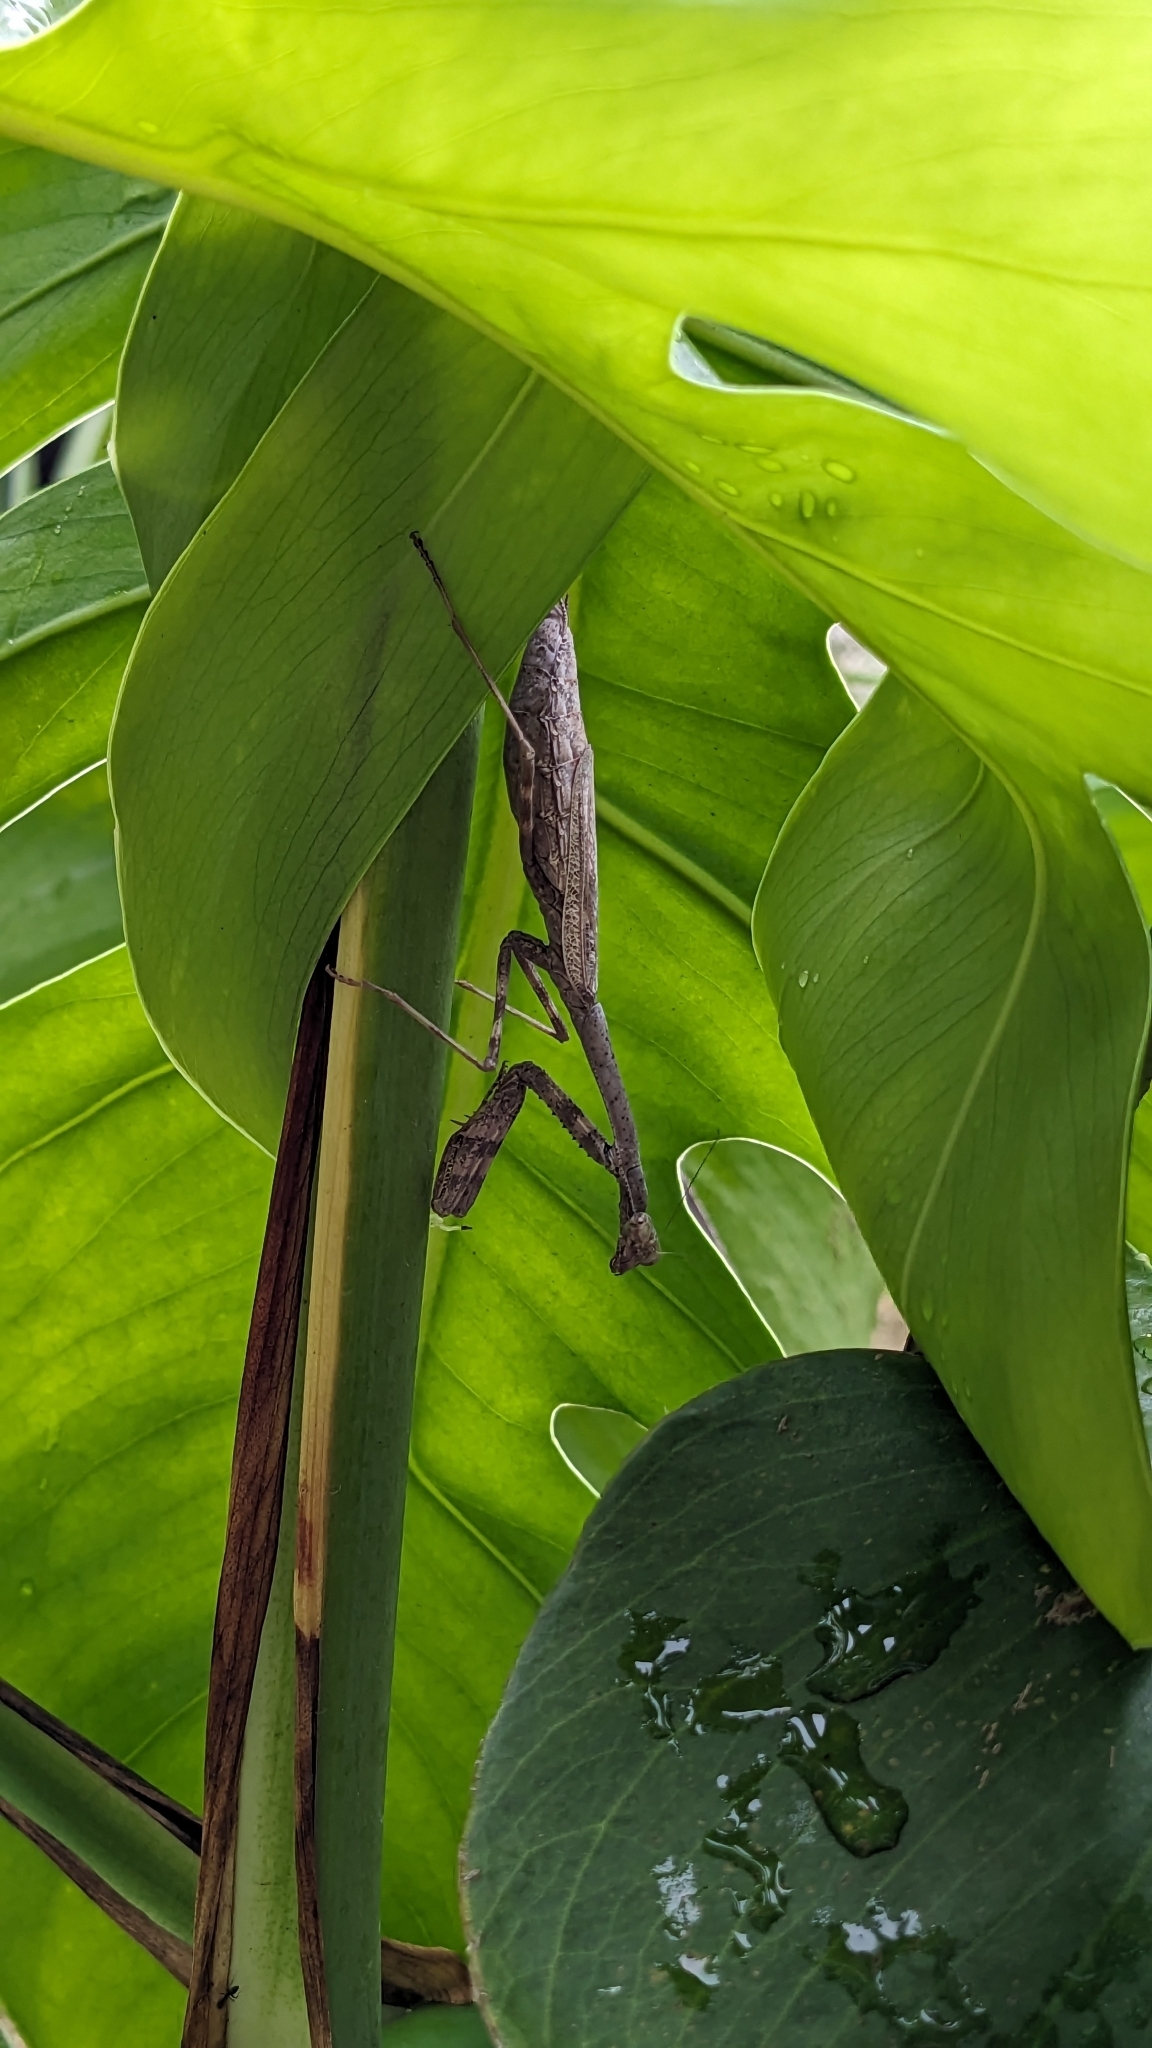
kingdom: Animalia
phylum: Arthropoda
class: Insecta
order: Mantodea
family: Mantidae
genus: Stagmomantis
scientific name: Stagmomantis carolina
